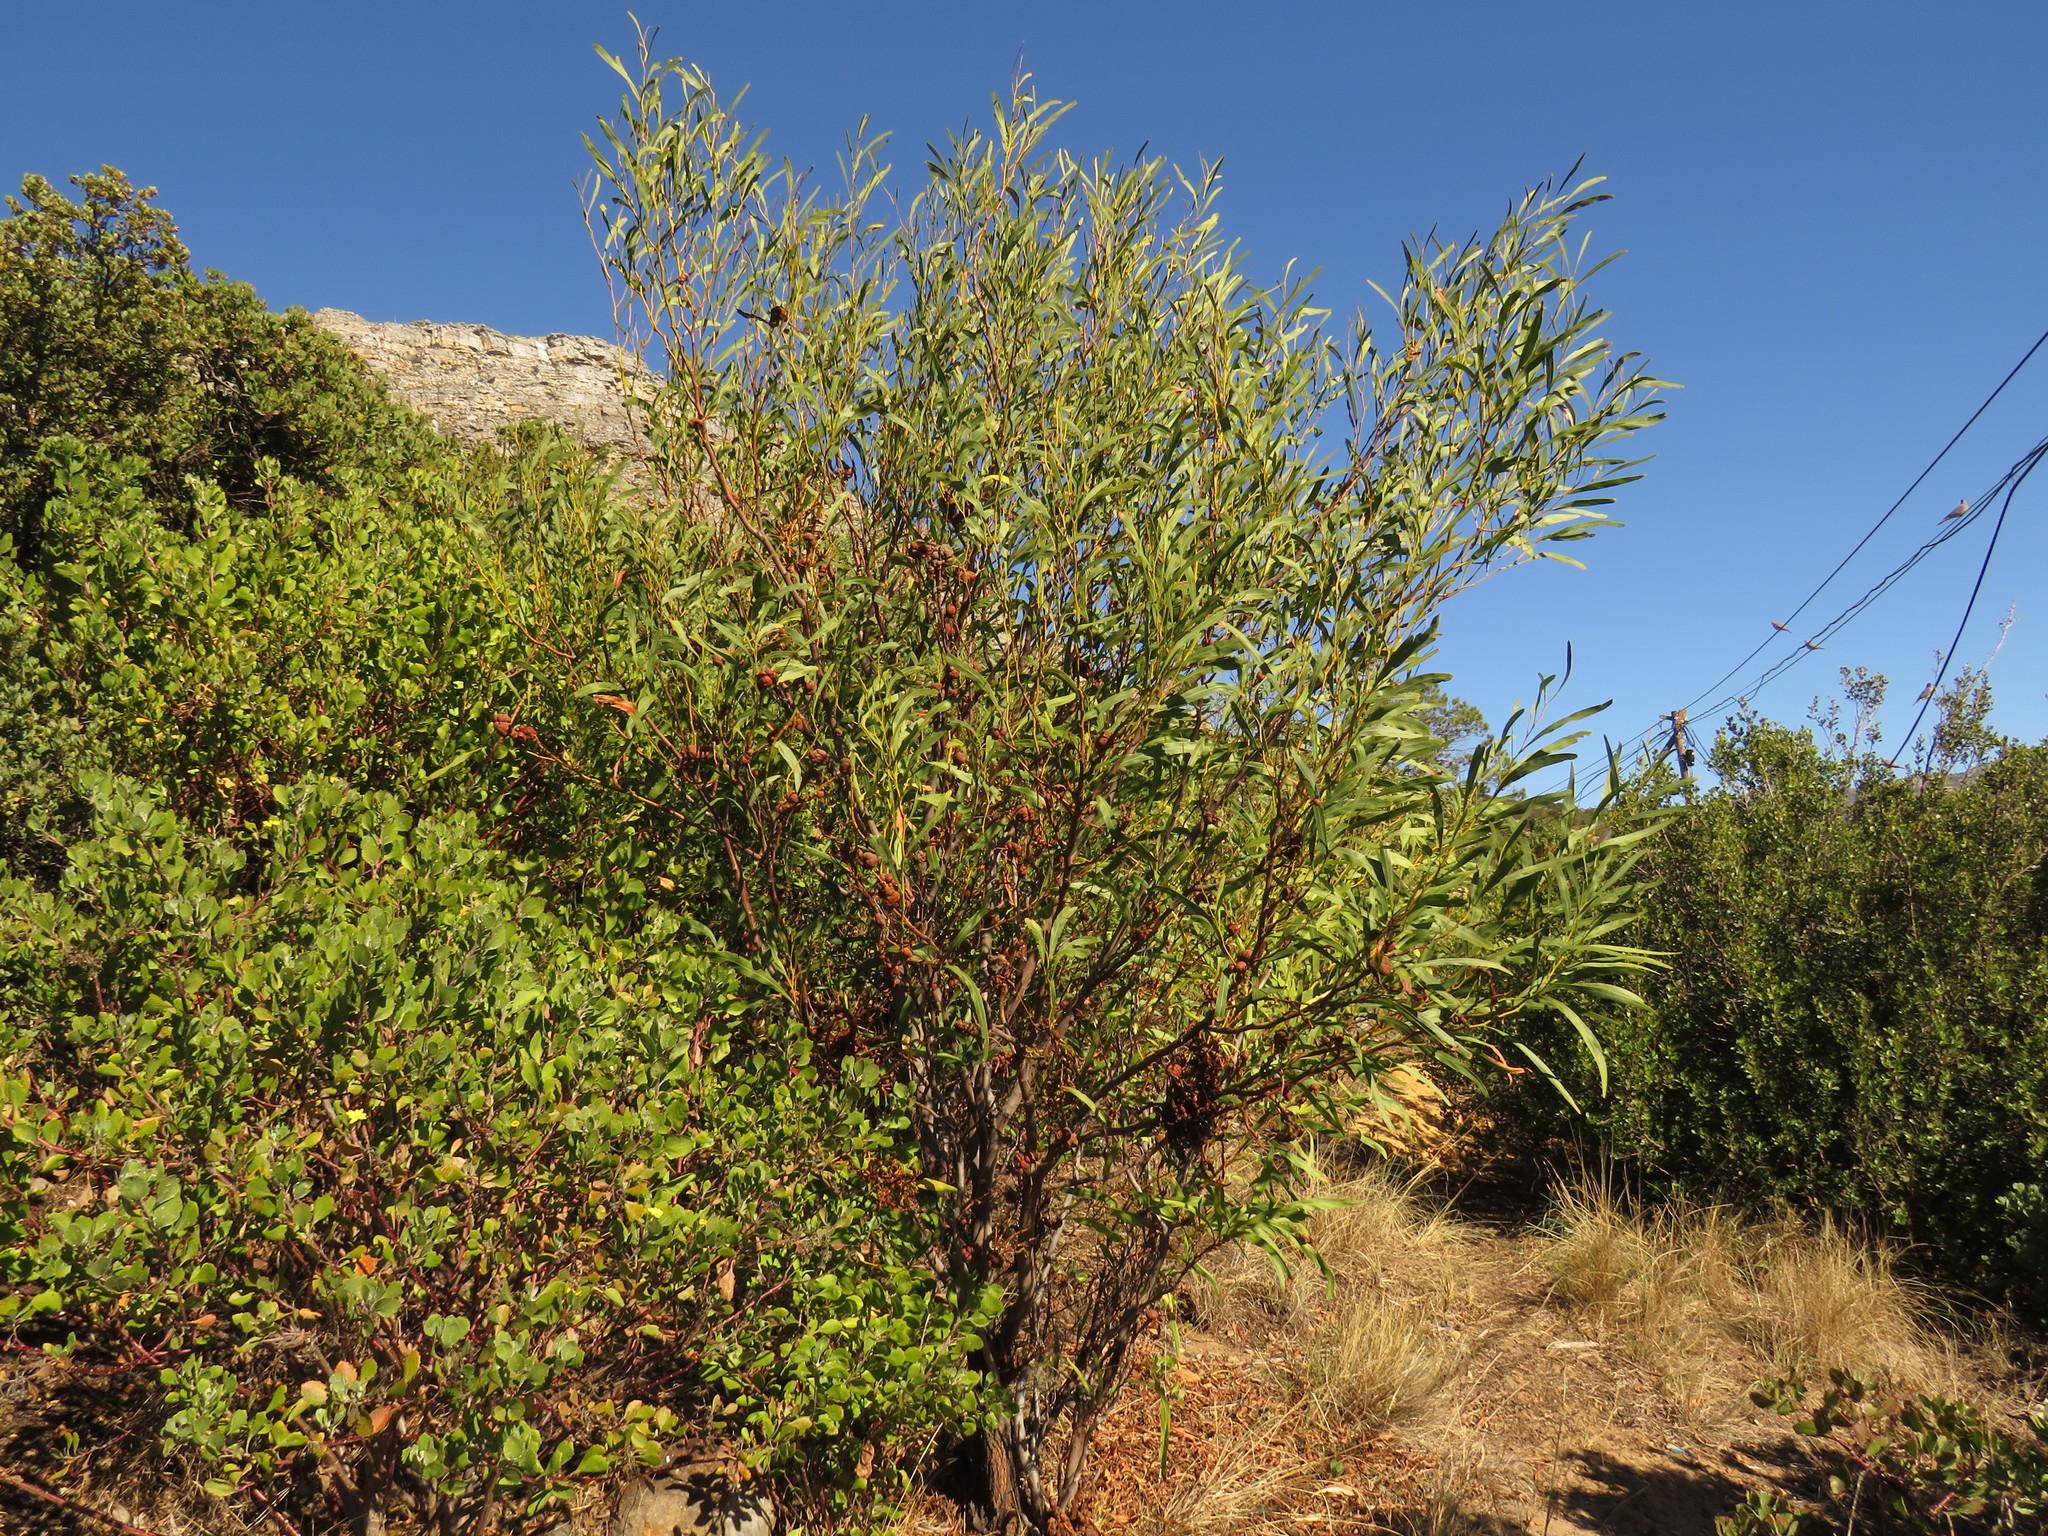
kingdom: Plantae
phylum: Tracheophyta
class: Magnoliopsida
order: Fabales
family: Fabaceae
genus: Acacia
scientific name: Acacia saligna
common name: Orange wattle
